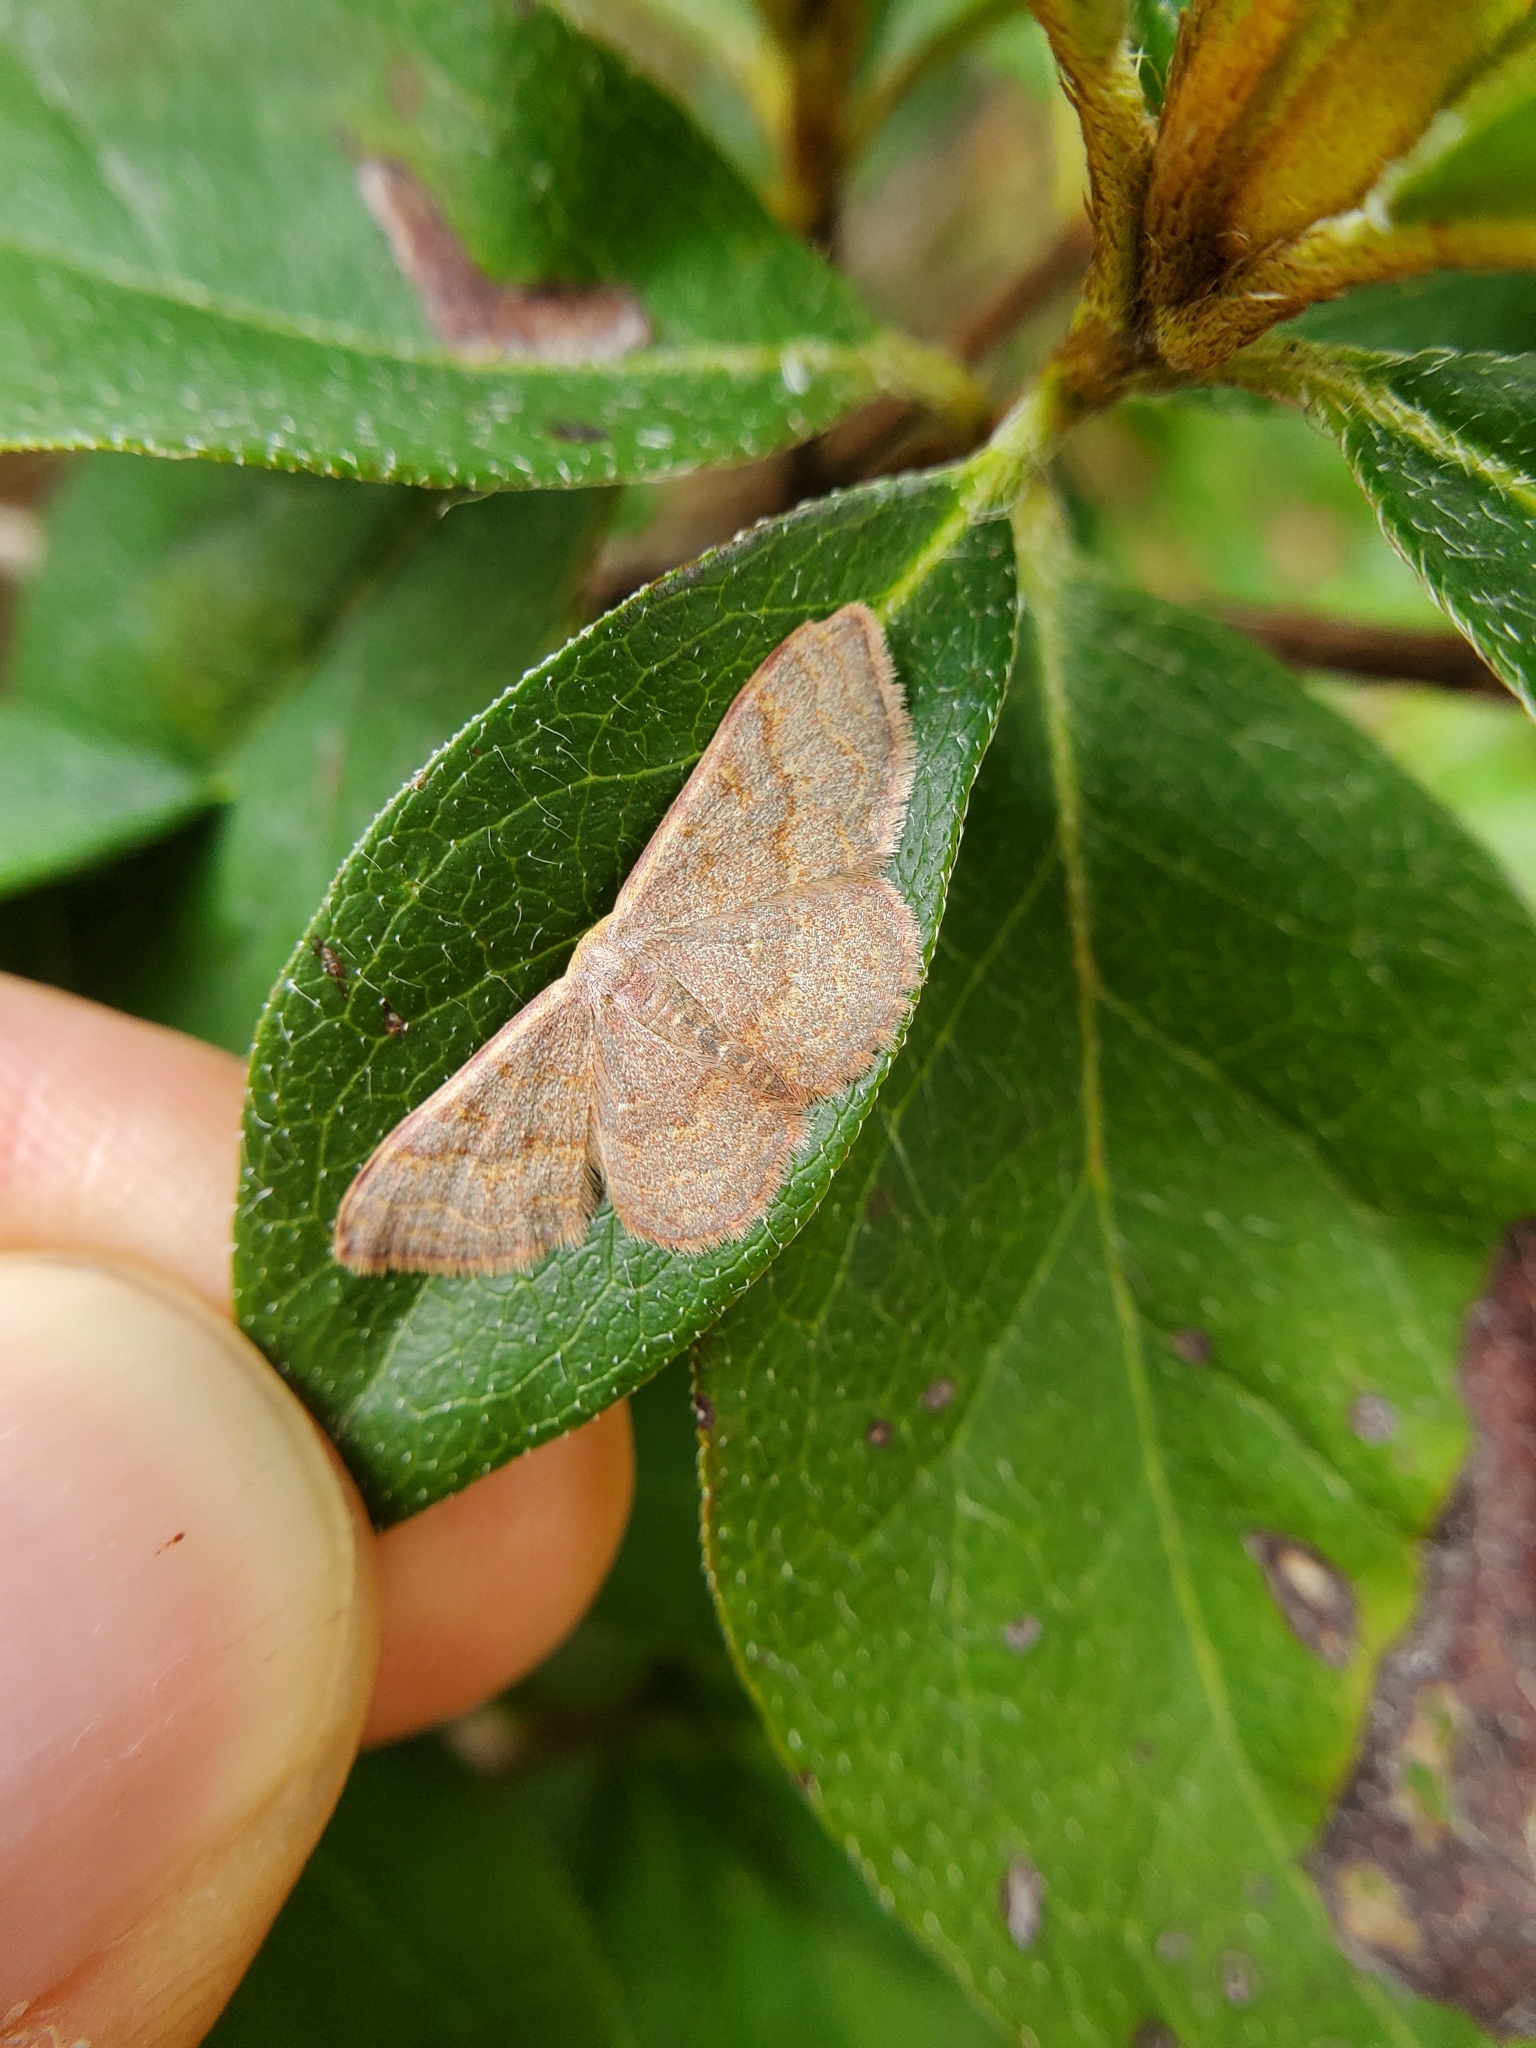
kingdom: Animalia
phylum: Arthropoda
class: Insecta
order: Lepidoptera
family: Geometridae
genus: Leptostales
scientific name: Leptostales pannaria
